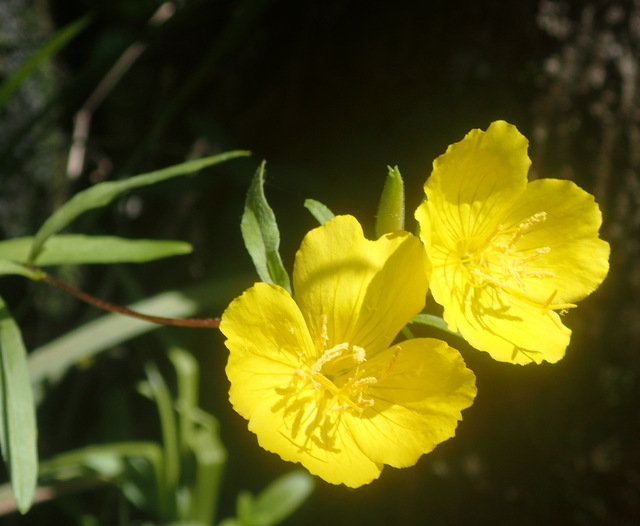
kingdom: Plantae
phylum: Tracheophyta
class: Magnoliopsida
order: Myrtales
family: Onagraceae
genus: Oenothera
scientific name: Oenothera fruticosa
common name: Southern sundrops
